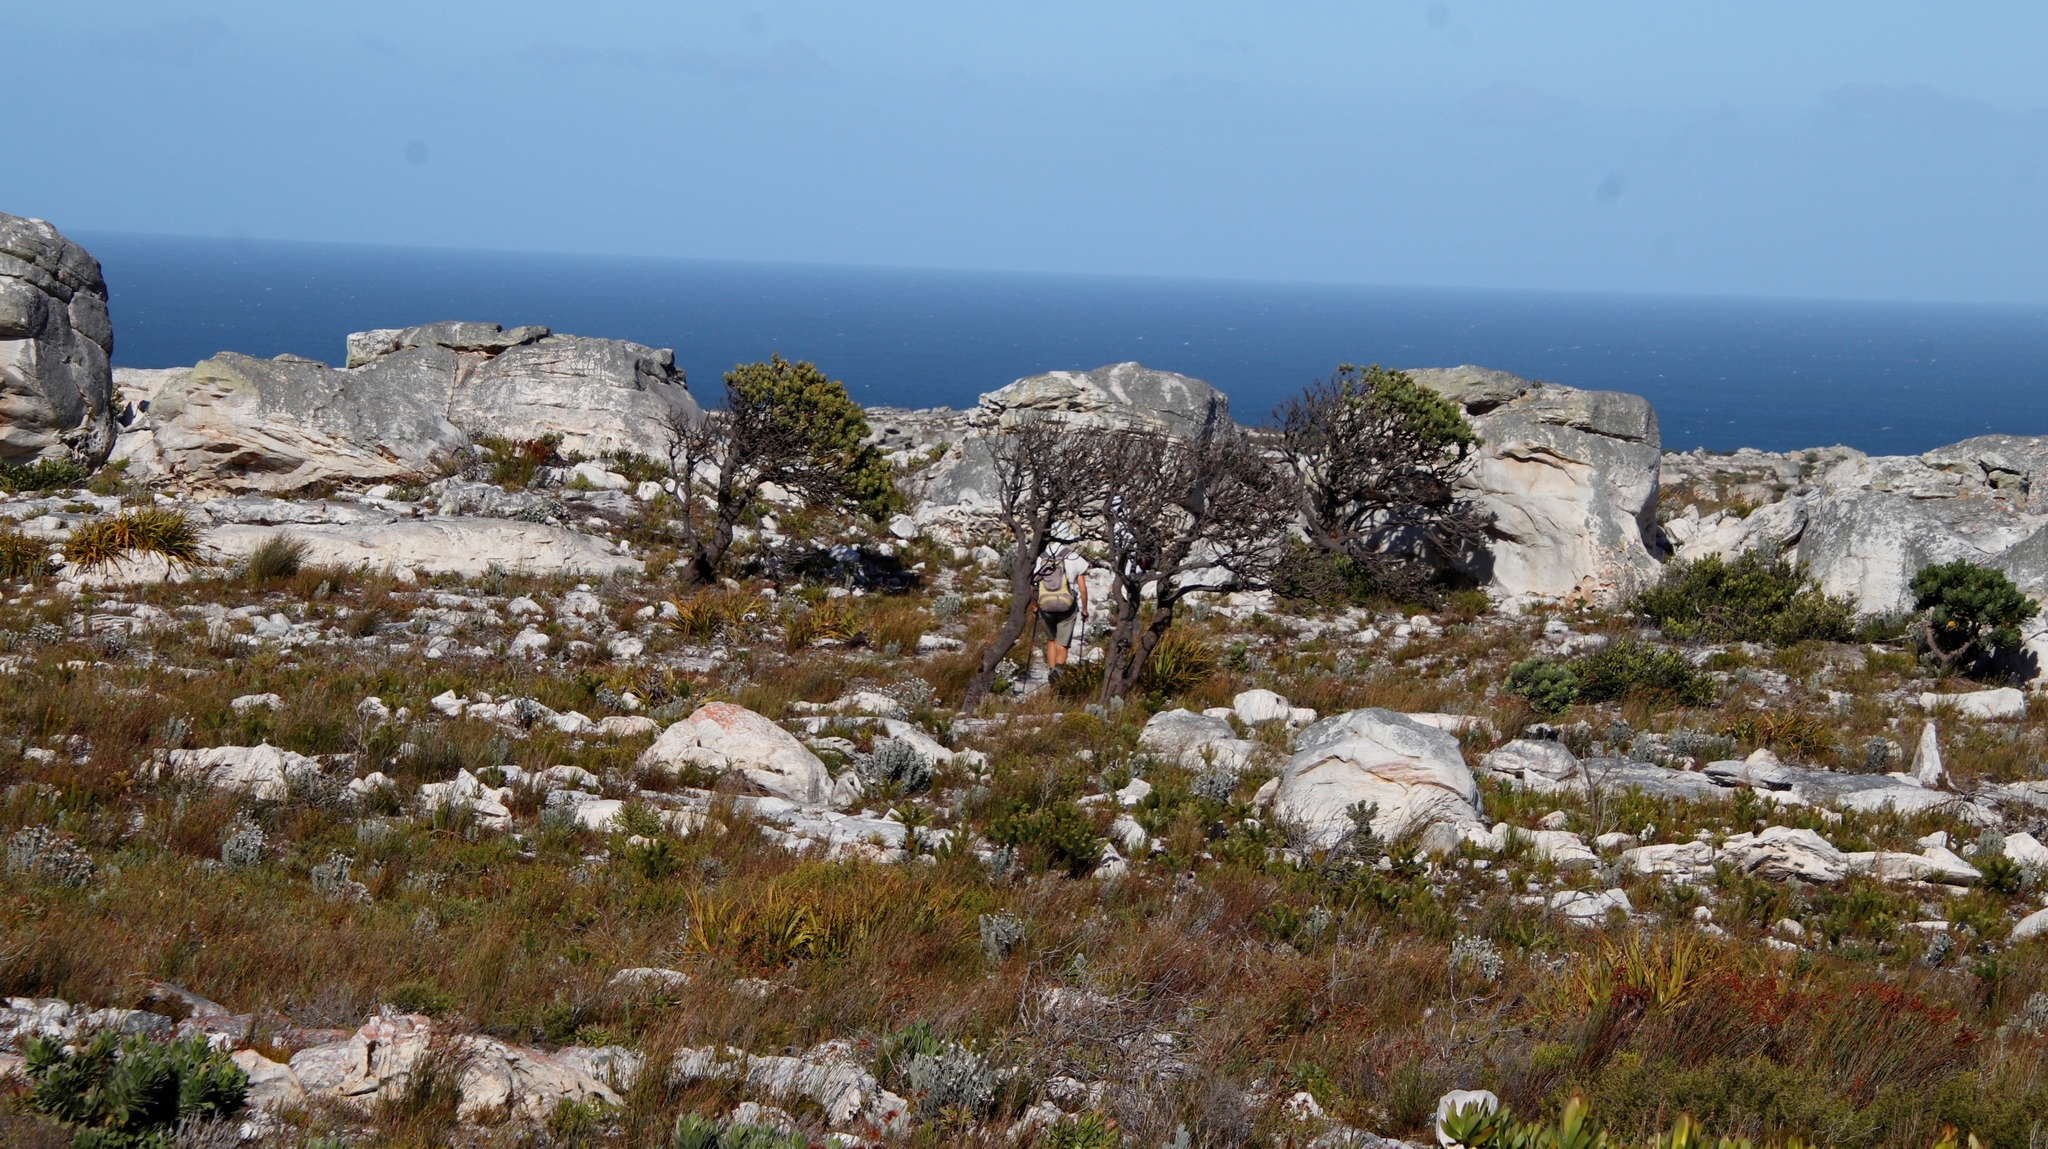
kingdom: Plantae
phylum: Tracheophyta
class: Magnoliopsida
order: Proteales
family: Proteaceae
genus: Mimetes
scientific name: Mimetes fimbriifolius
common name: Fringed bottlebrush
